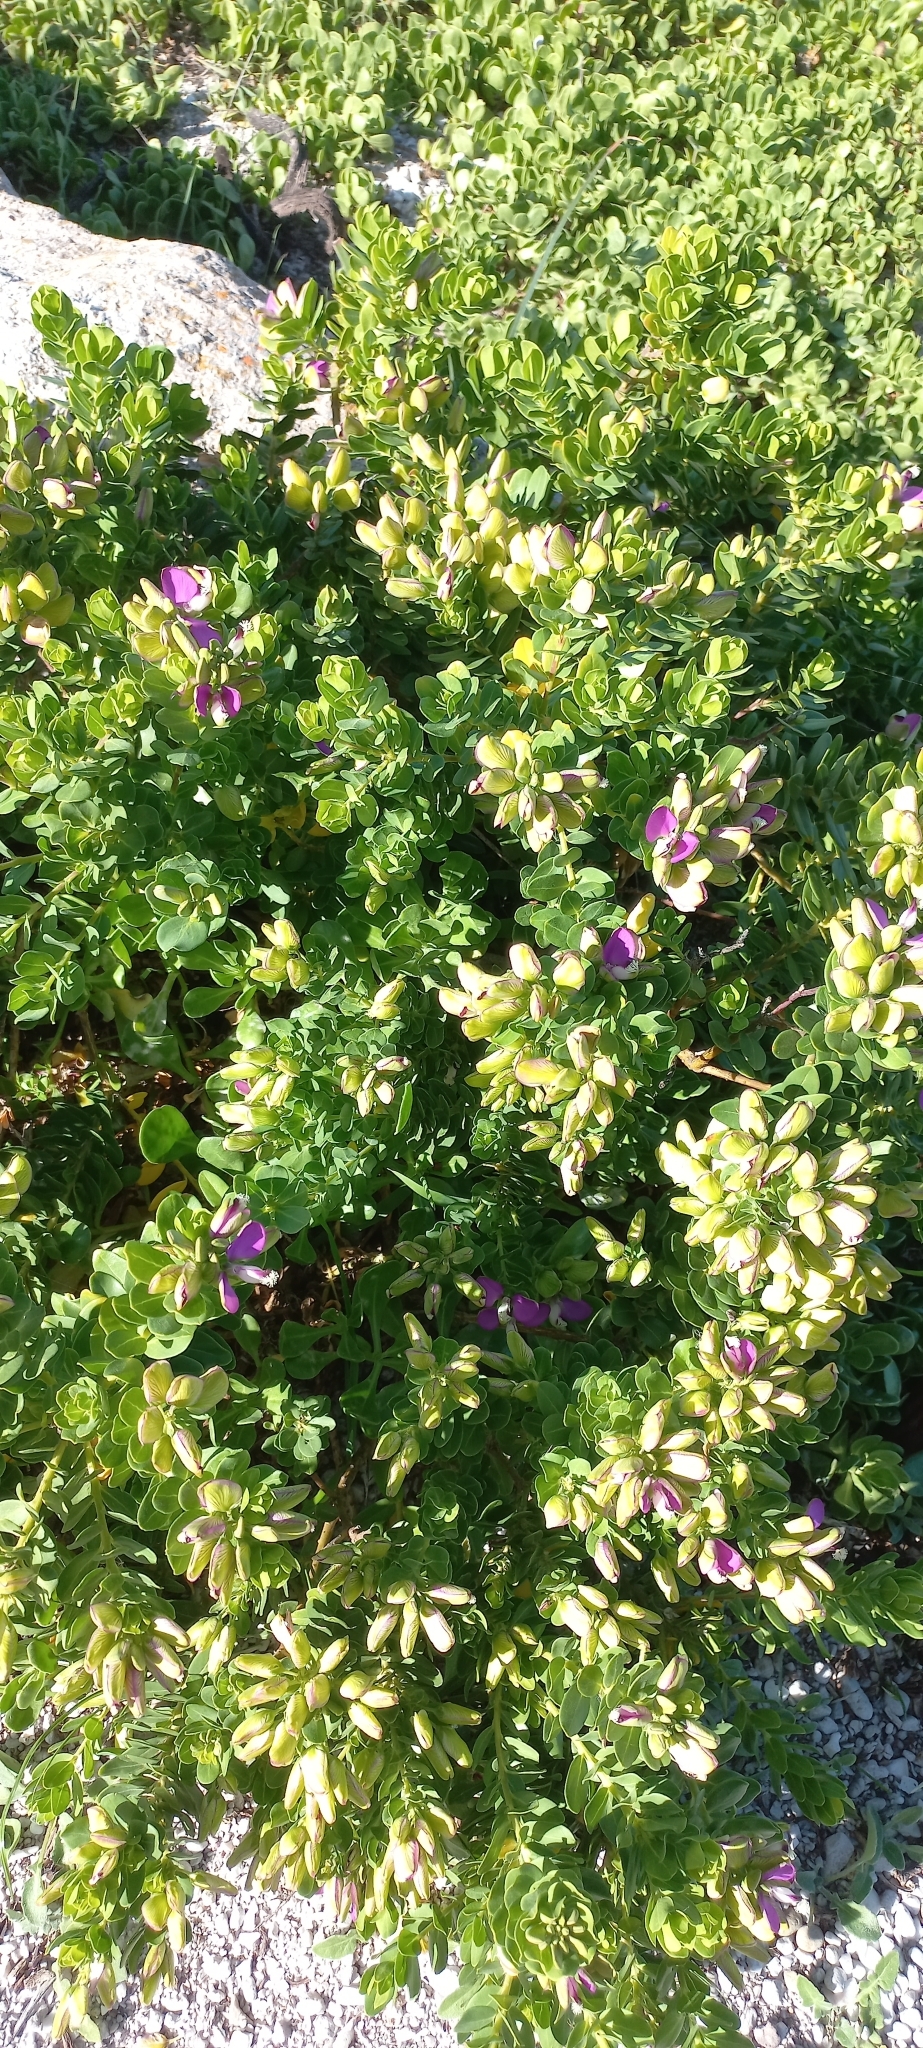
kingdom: Plantae
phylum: Tracheophyta
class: Magnoliopsida
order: Fabales
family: Polygalaceae
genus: Polygala
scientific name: Polygala myrtifolia
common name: Myrtle-leaf milkwort
